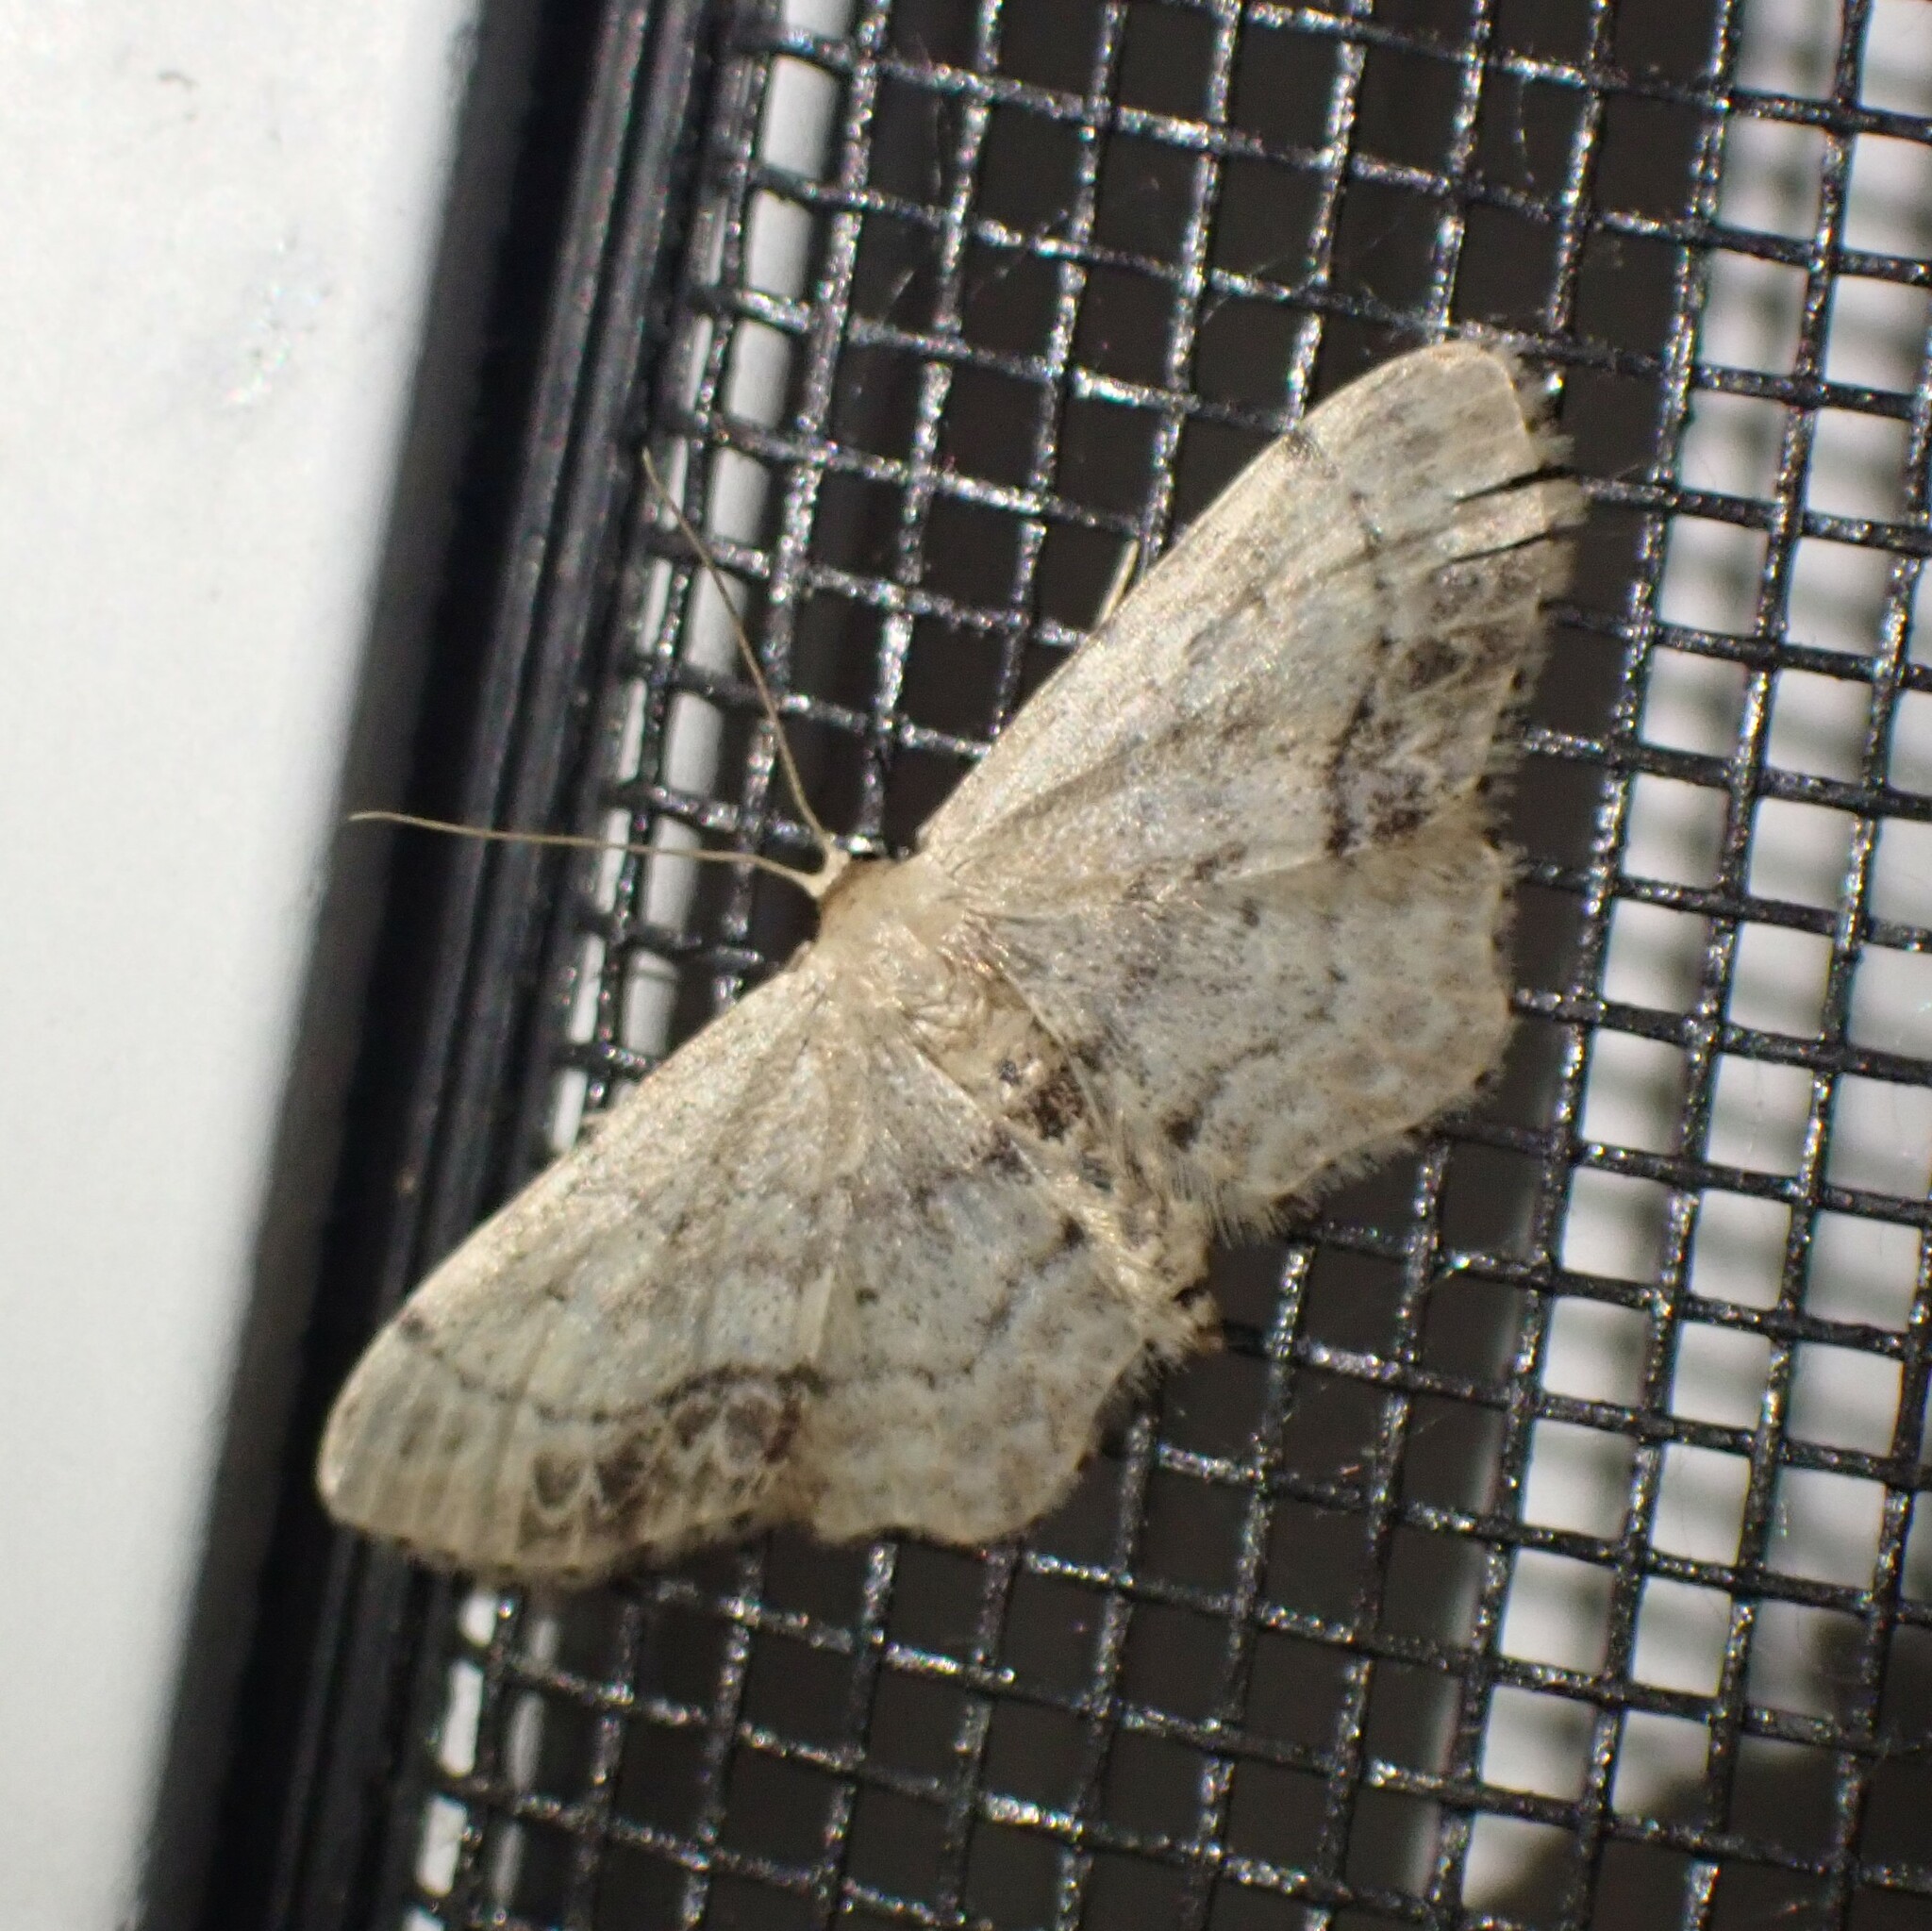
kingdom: Animalia
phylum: Arthropoda
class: Insecta
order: Lepidoptera
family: Geometridae
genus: Idaea
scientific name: Idaea dimidiata
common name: Single-dotted wave
